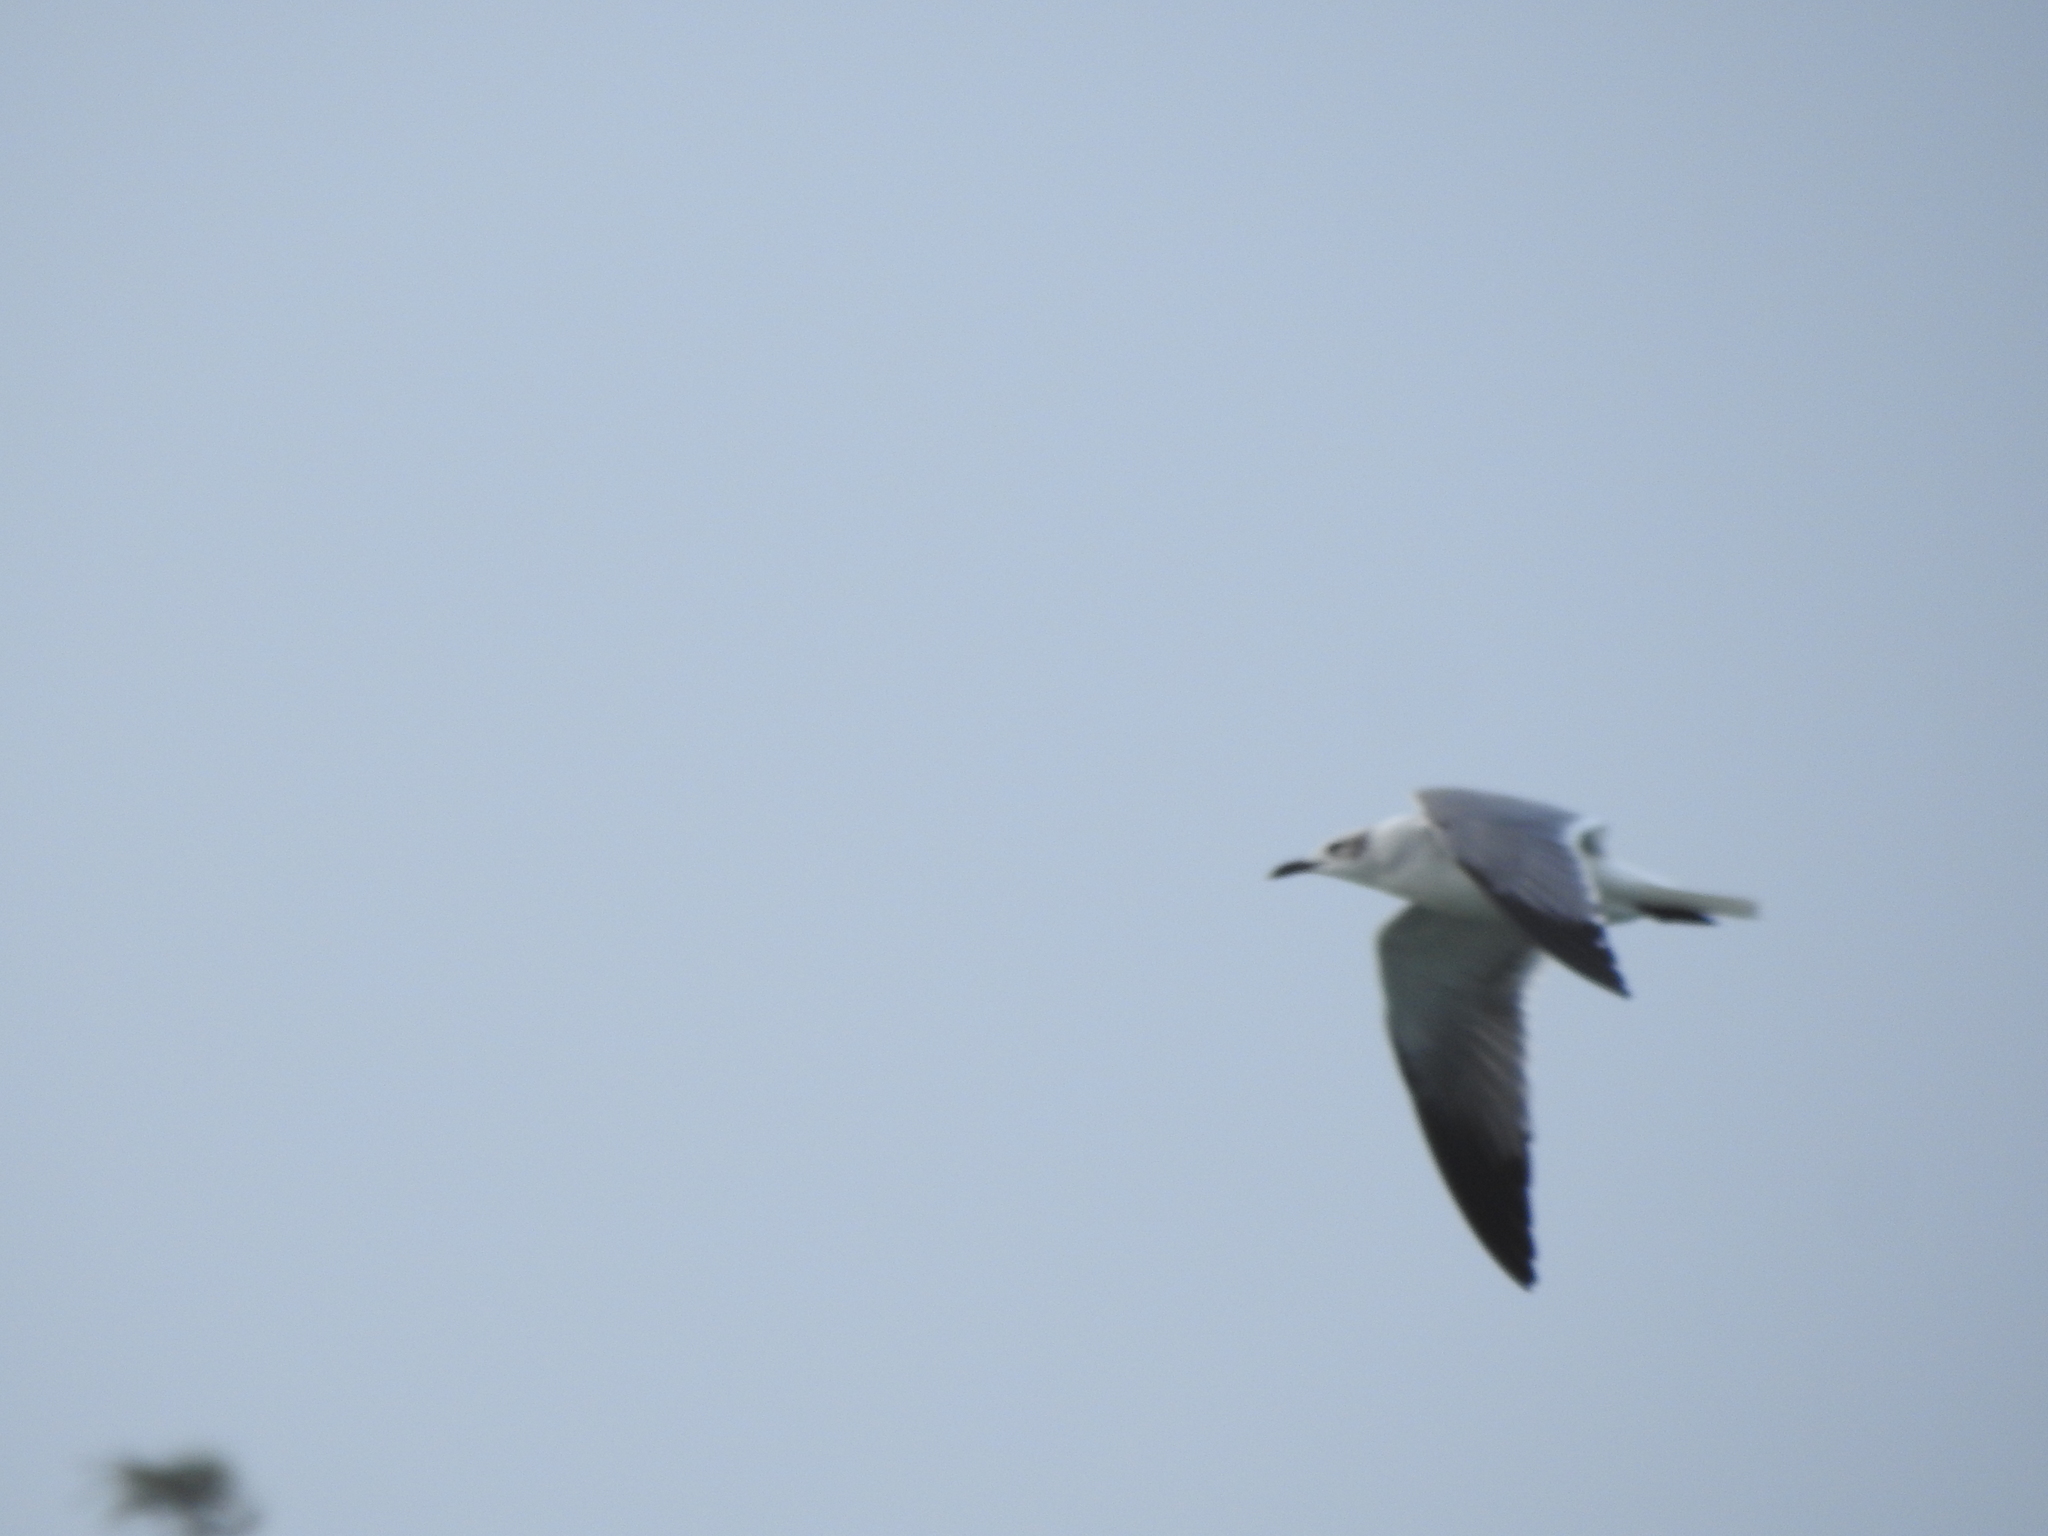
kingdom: Animalia
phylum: Chordata
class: Aves
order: Charadriiformes
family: Laridae
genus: Leucophaeus
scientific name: Leucophaeus atricilla
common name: Laughing gull
